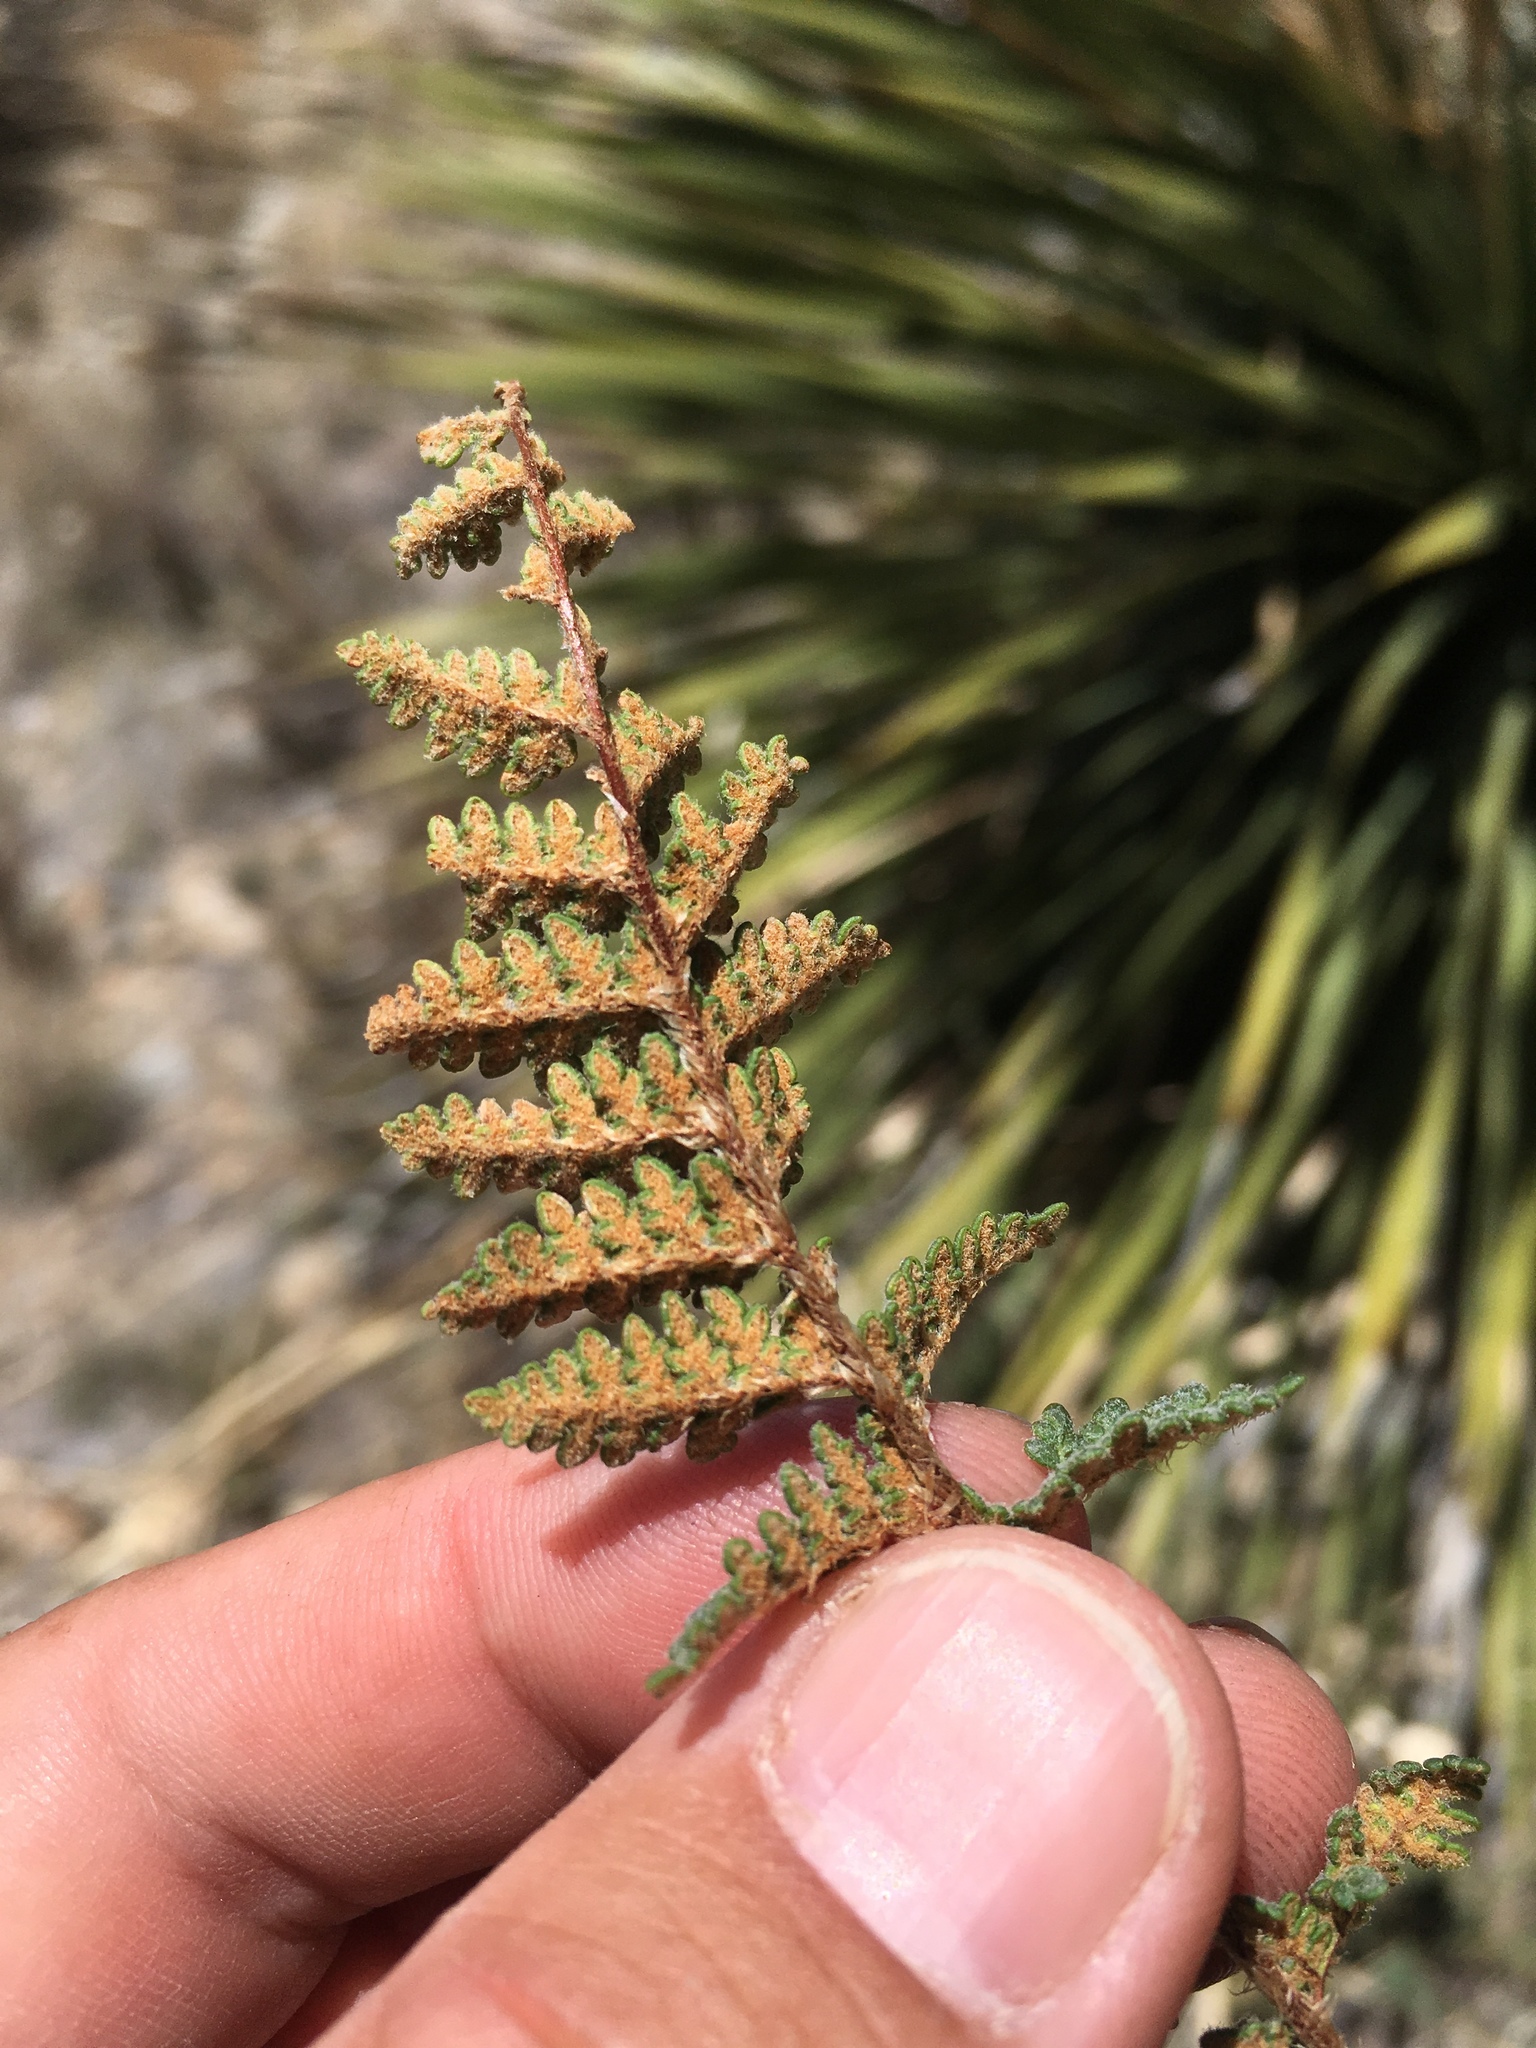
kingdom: Plantae
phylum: Tracheophyta
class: Polypodiopsida
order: Polypodiales
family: Pteridaceae
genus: Myriopteris
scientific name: Myriopteris rufa
